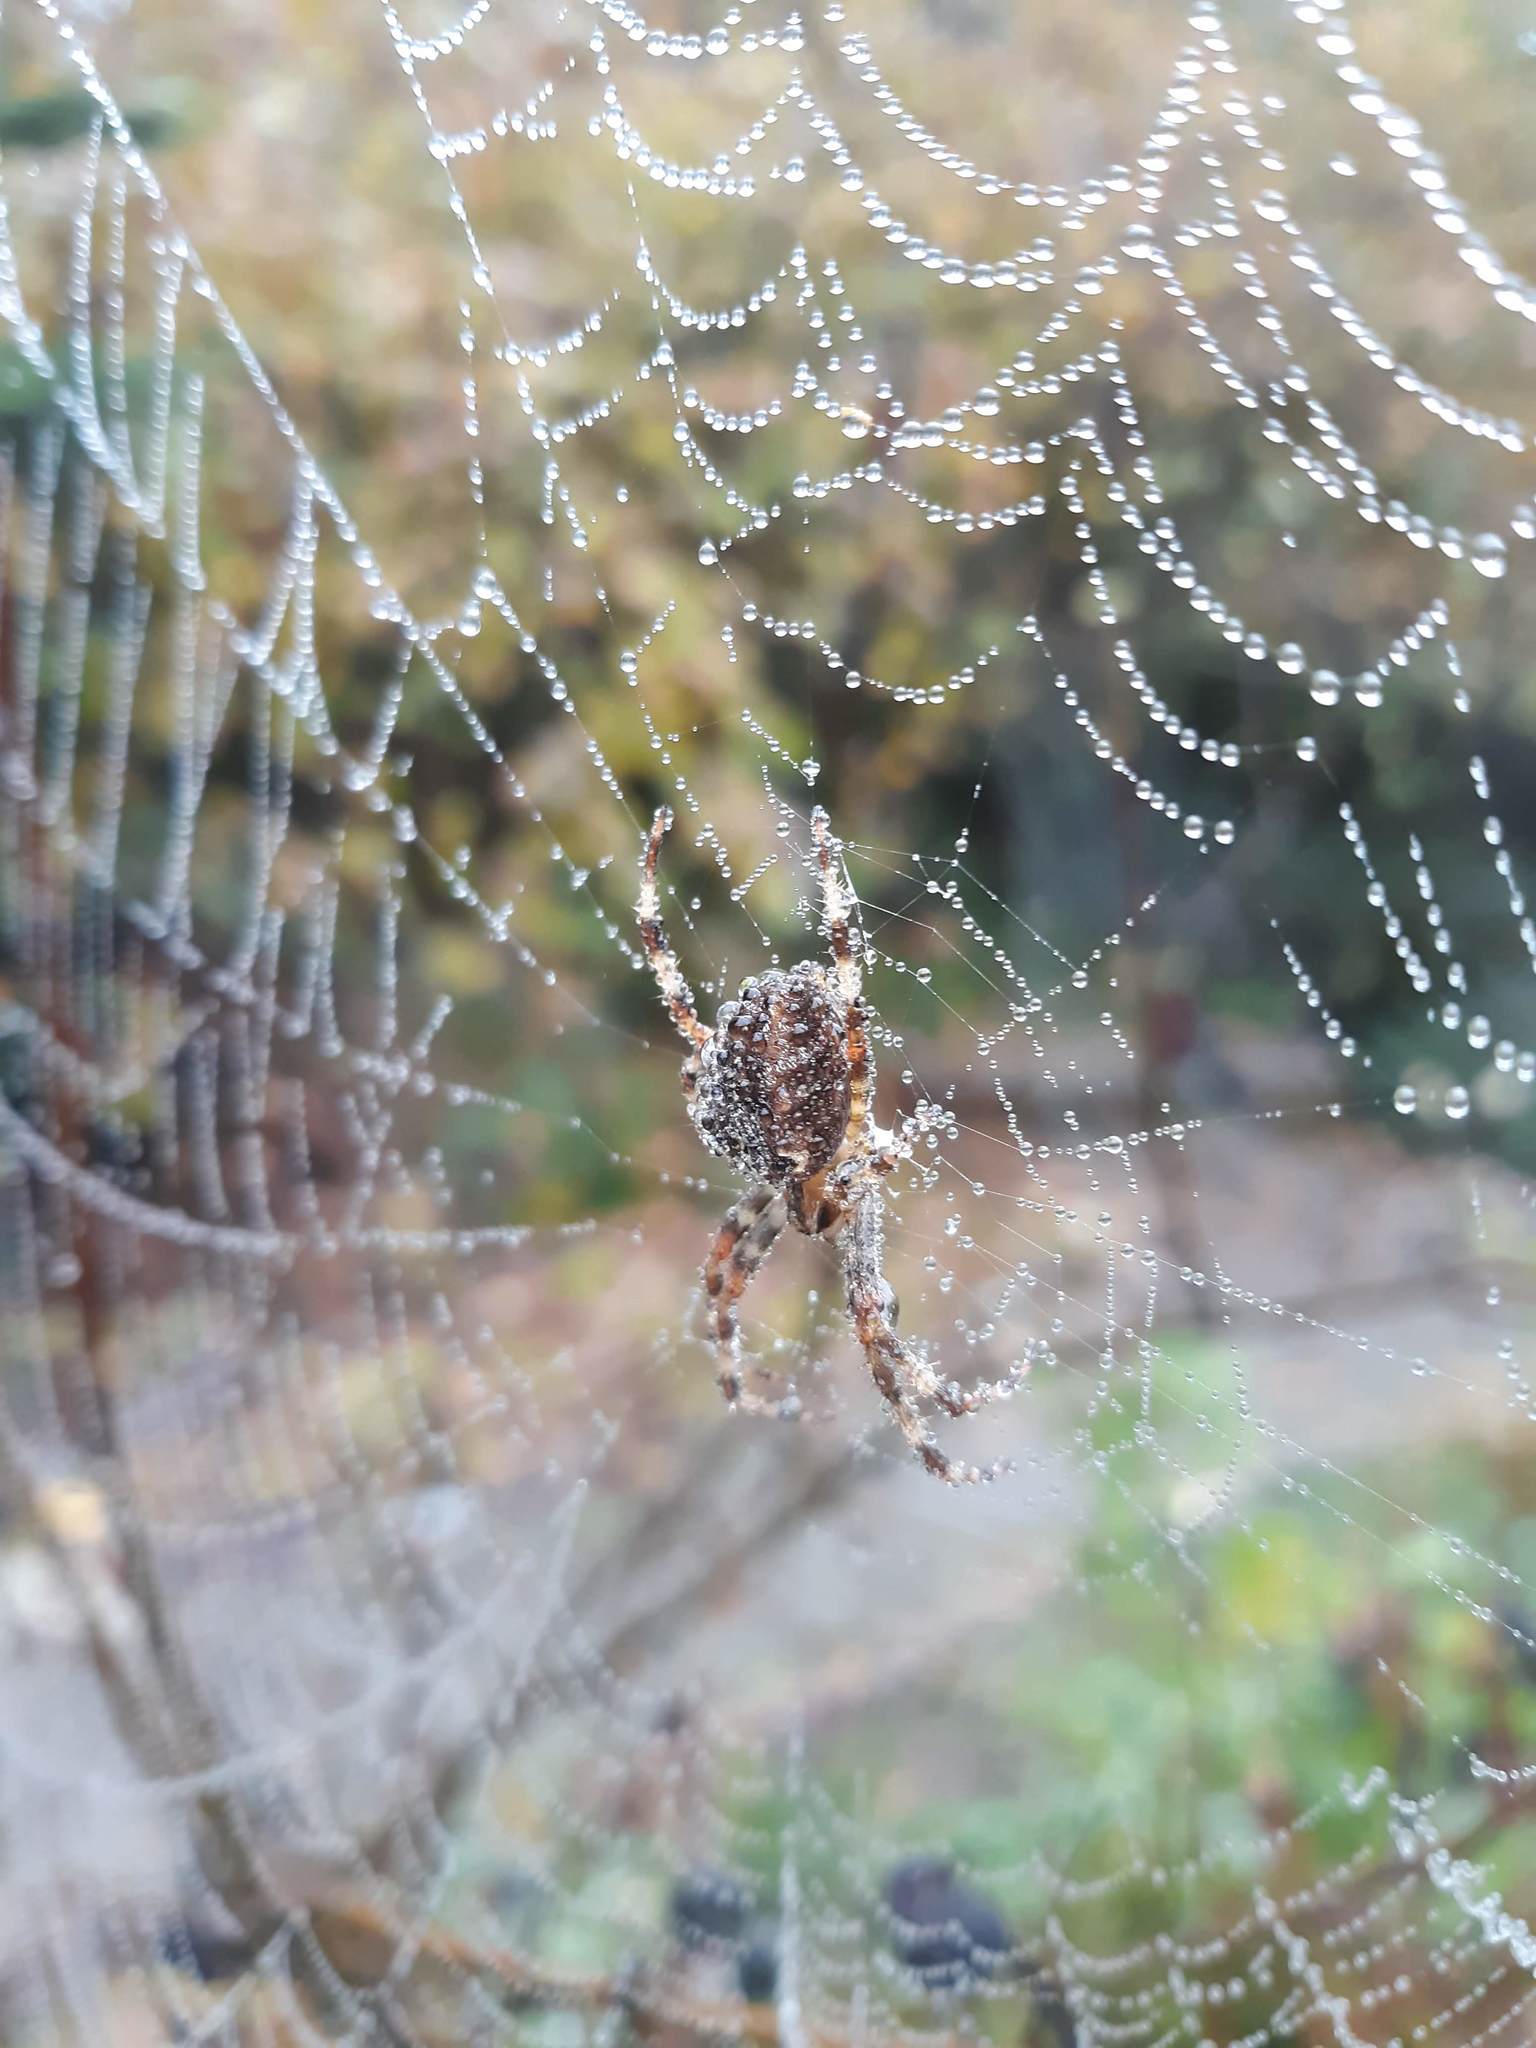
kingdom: Animalia
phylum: Arthropoda
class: Arachnida
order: Araneae
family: Araneidae
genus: Araneus
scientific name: Araneus diadematus
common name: Cross orbweaver
